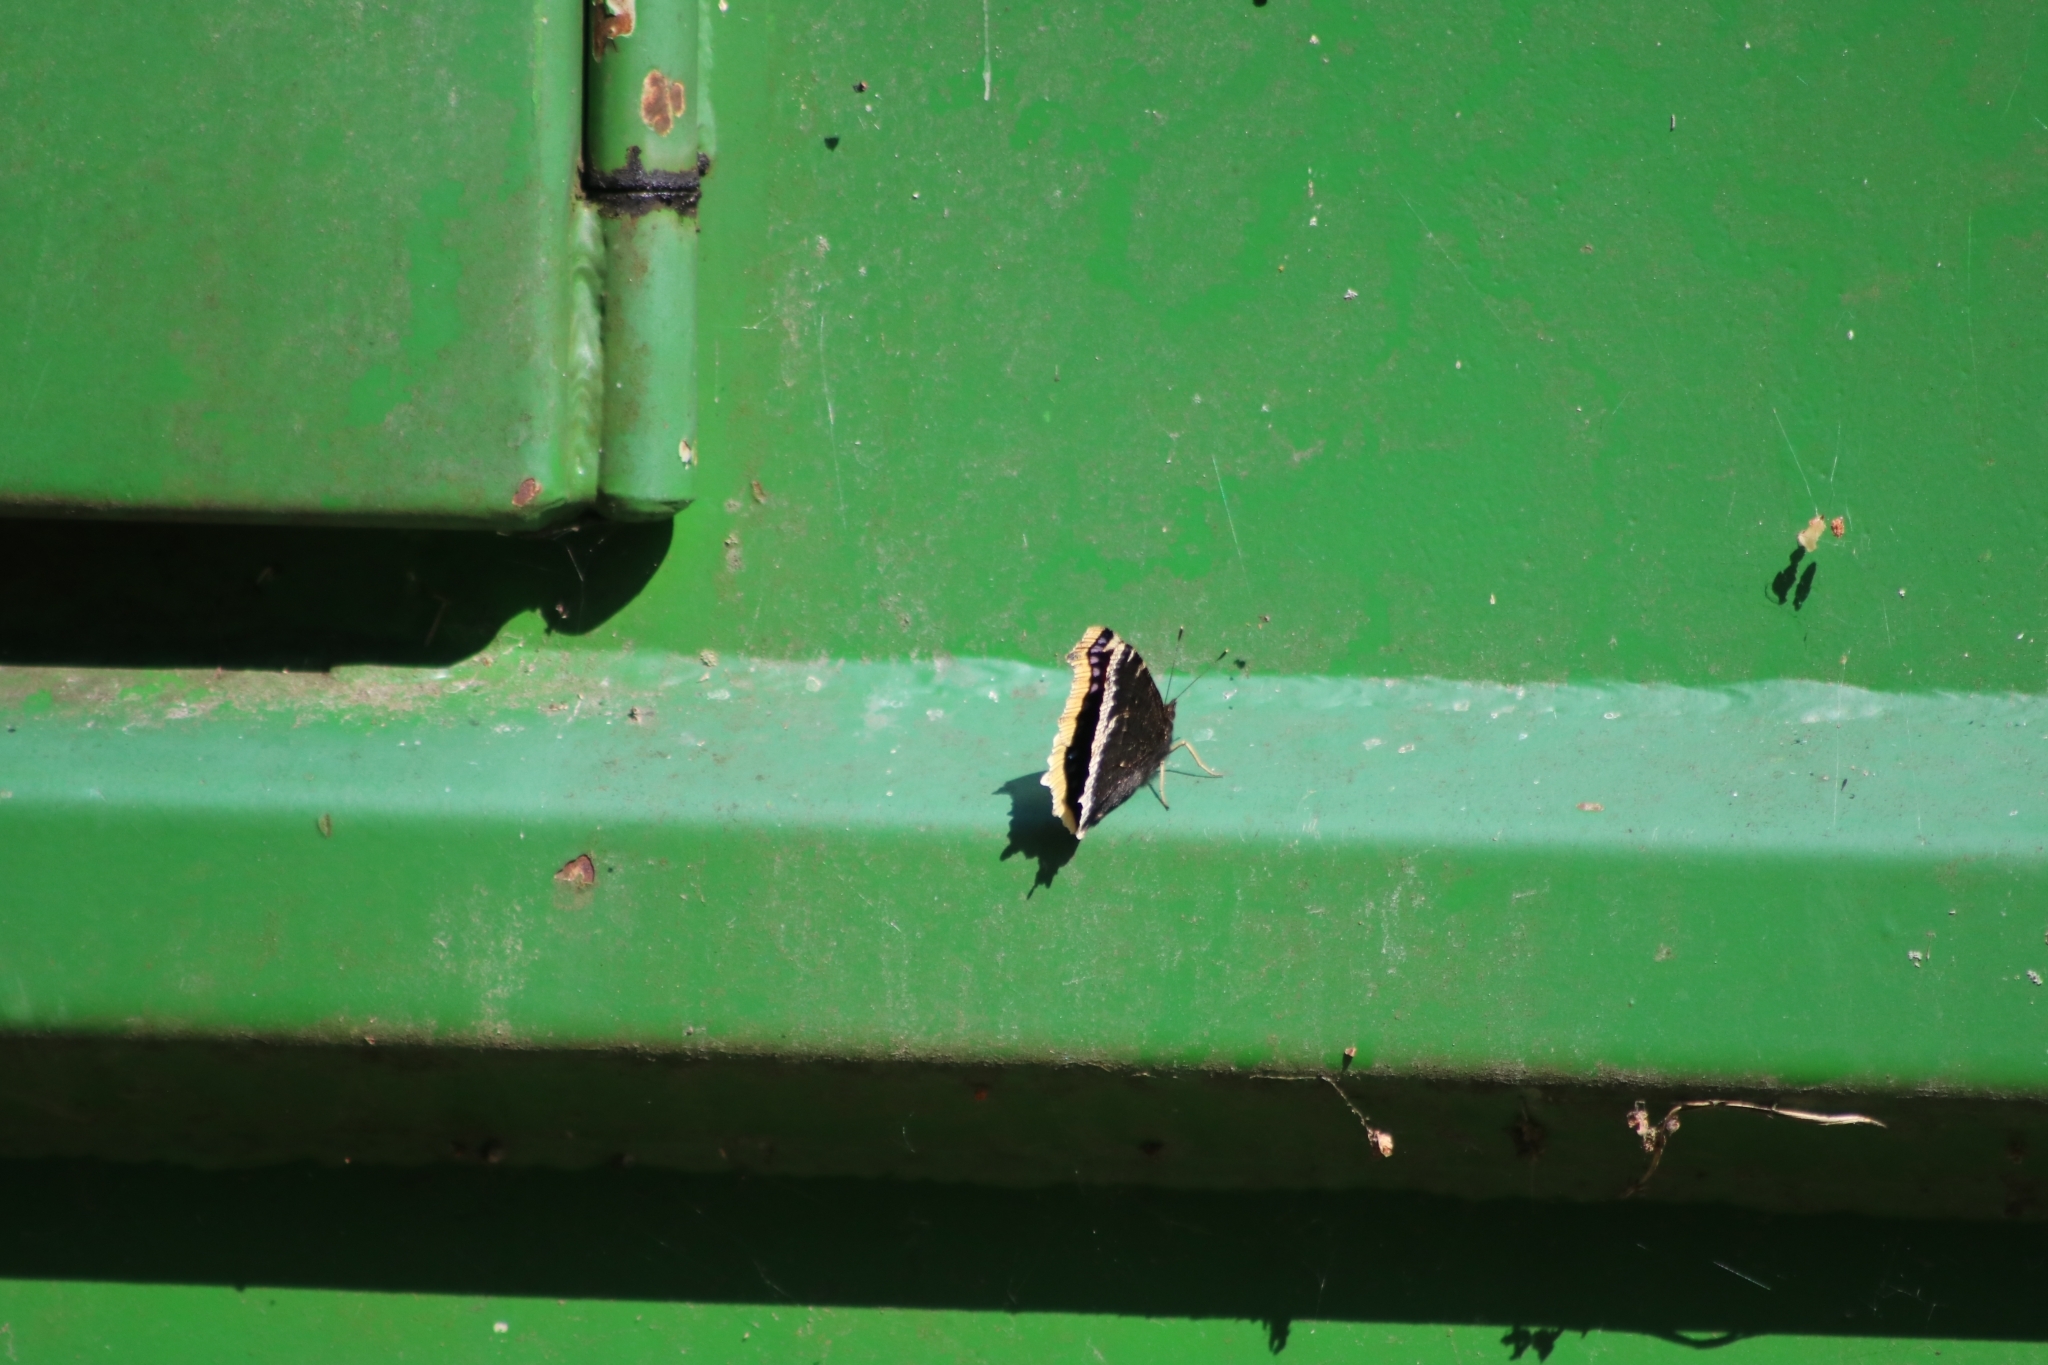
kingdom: Animalia
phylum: Arthropoda
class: Insecta
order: Lepidoptera
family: Nymphalidae
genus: Nymphalis
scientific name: Nymphalis antiopa
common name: Camberwell beauty
